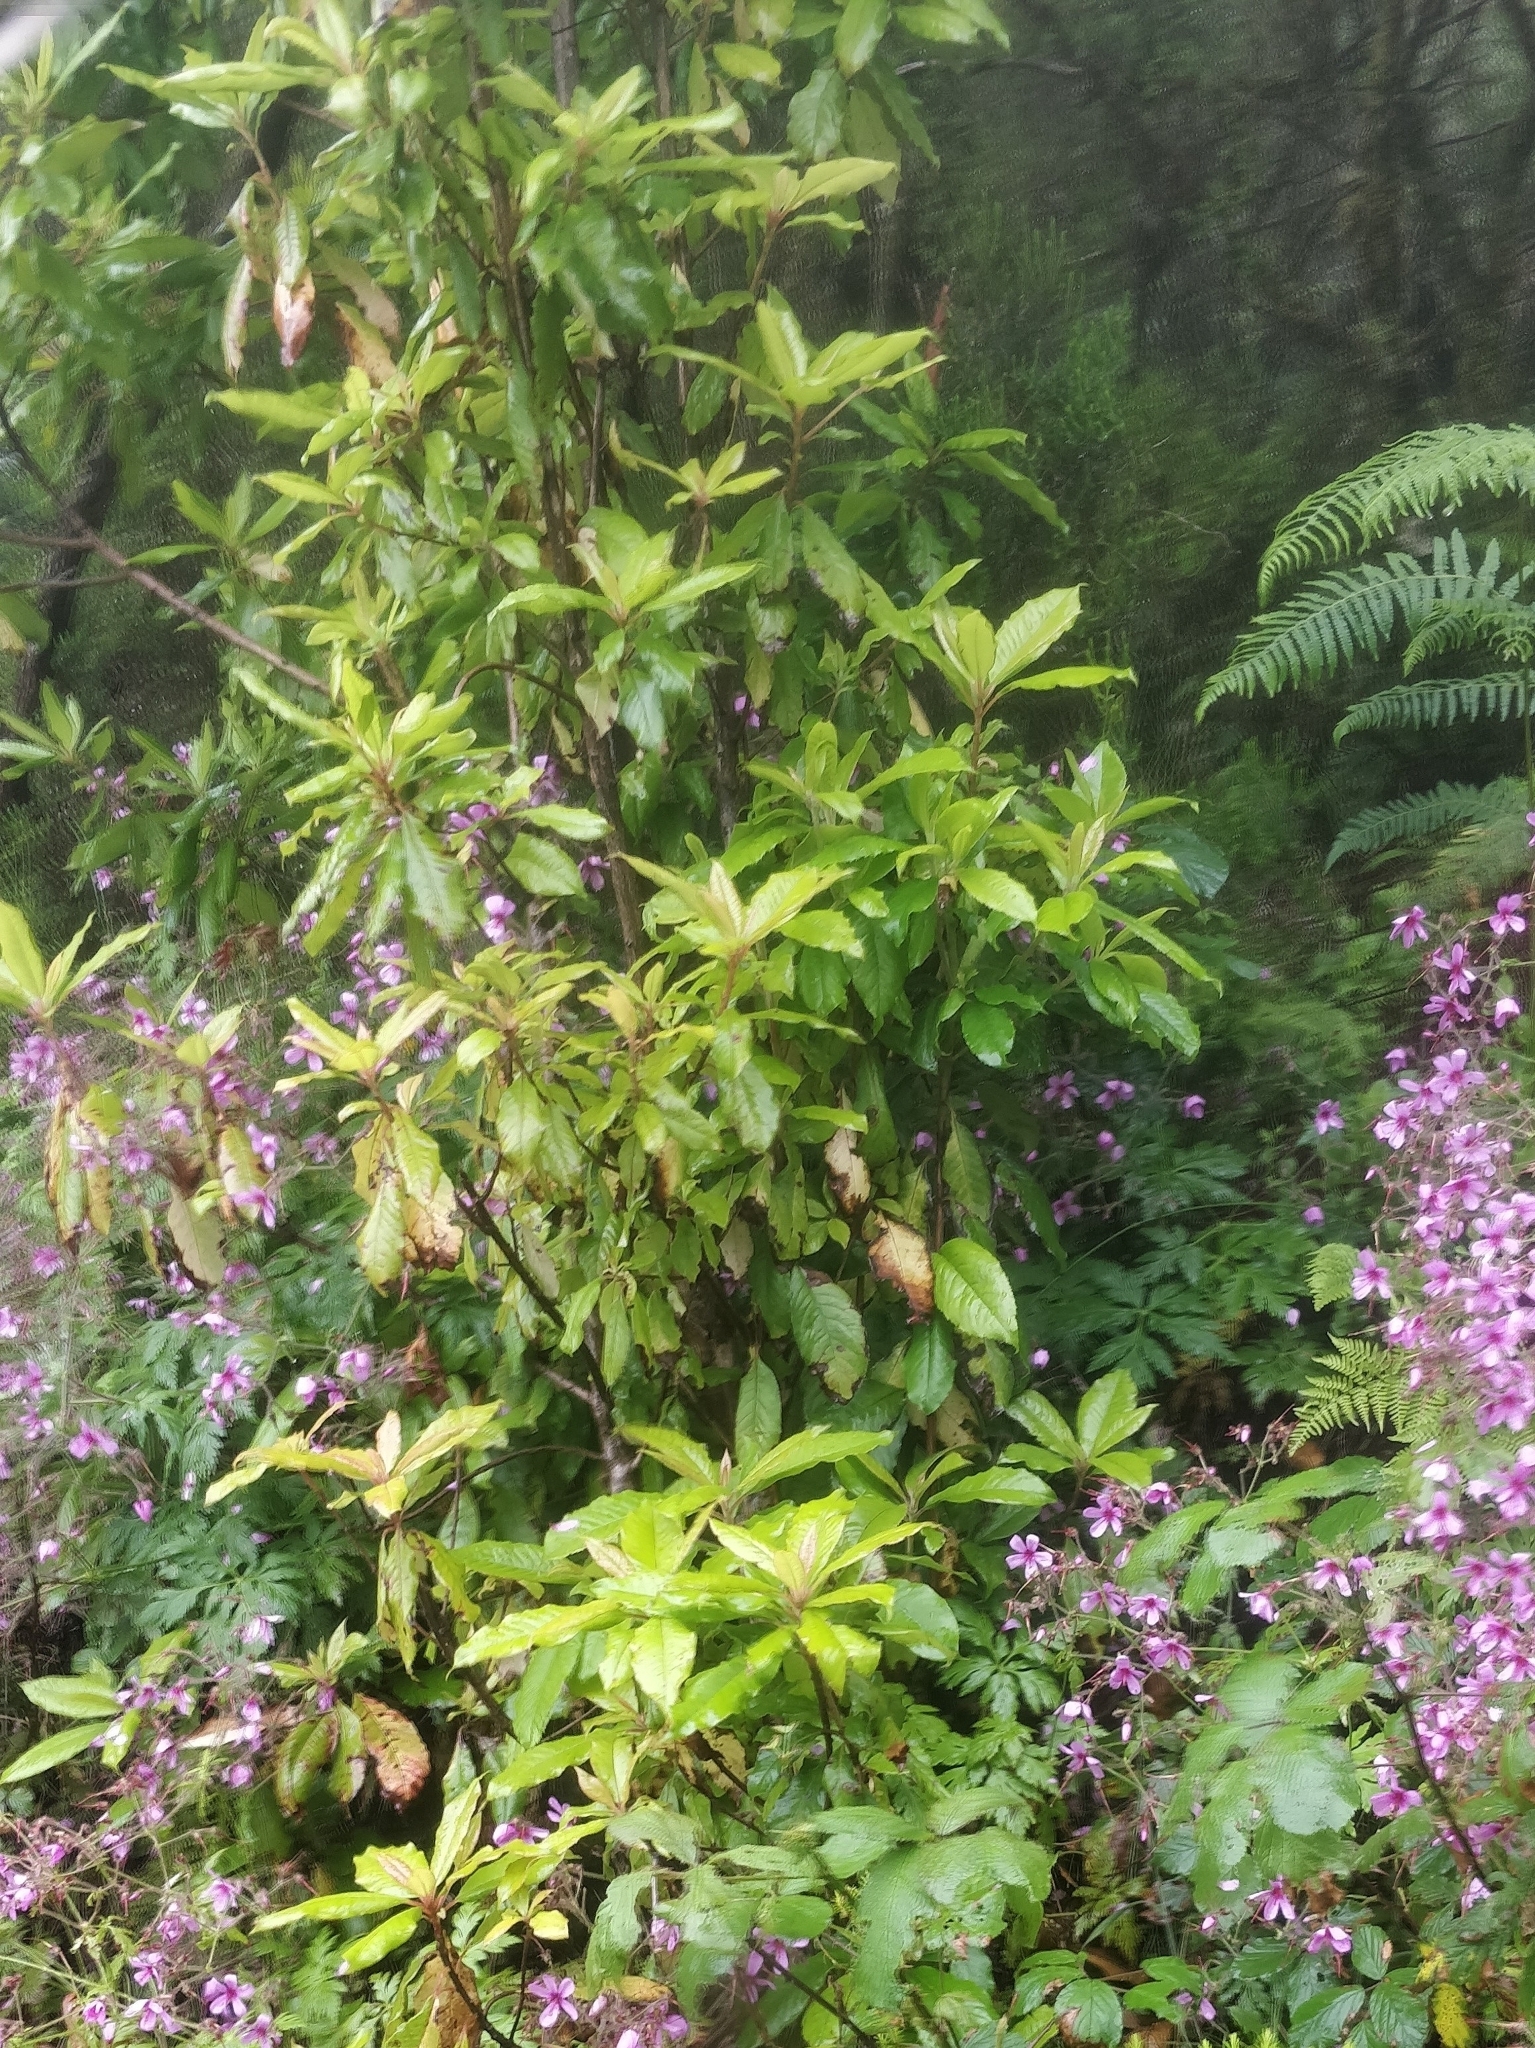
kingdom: Plantae
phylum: Tracheophyta
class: Magnoliopsida
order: Ericales
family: Clethraceae
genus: Clethra
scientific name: Clethra arborea
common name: Lily-of-the-valley-tree
